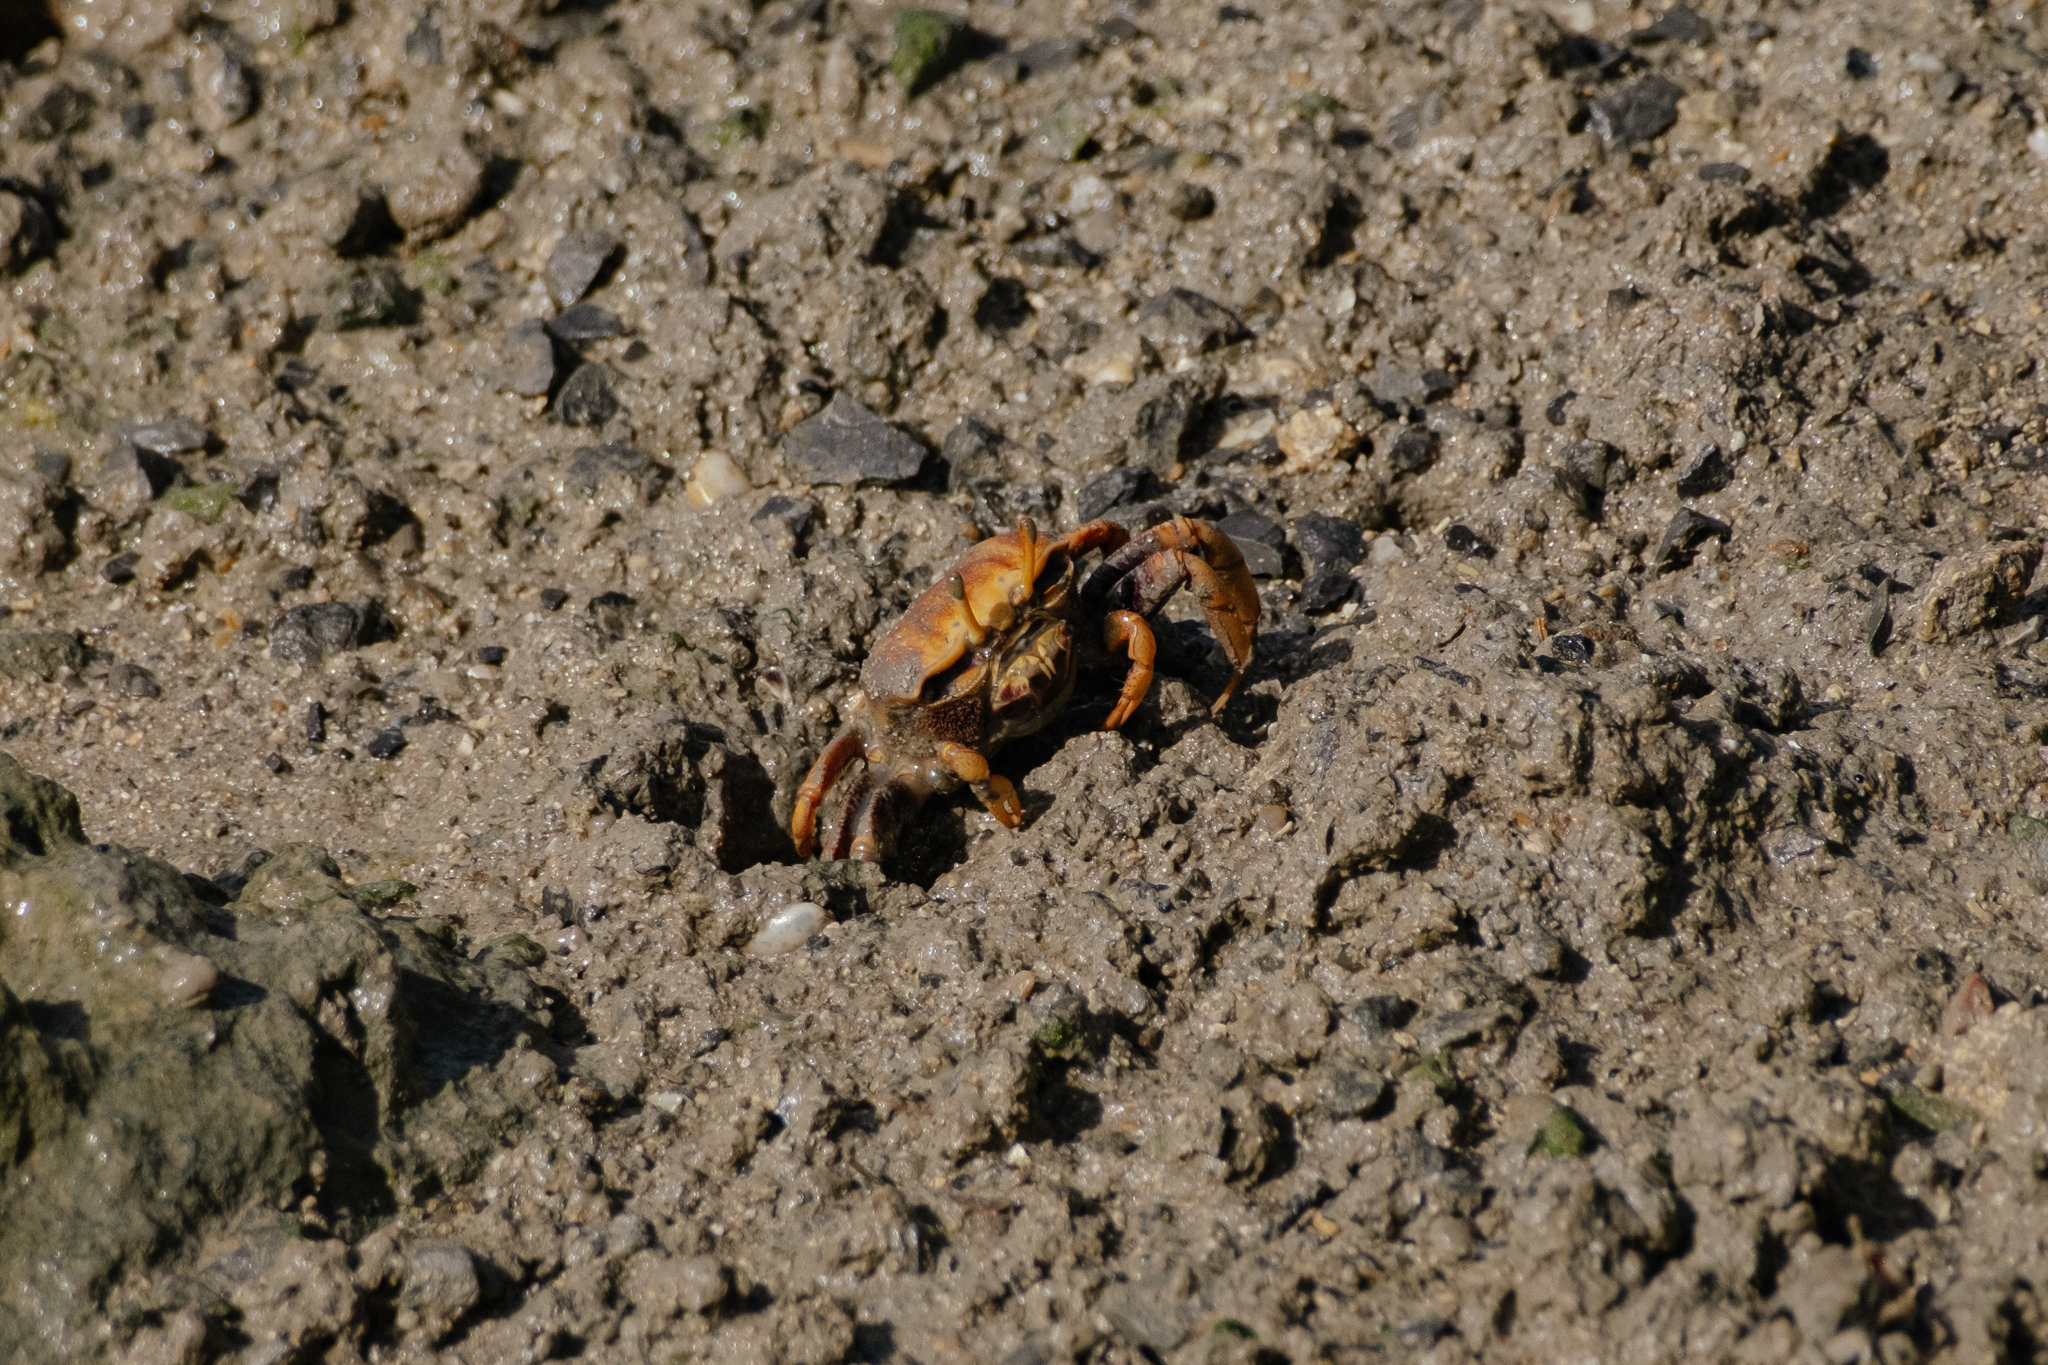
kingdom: Animalia
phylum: Arthropoda
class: Malacostraca
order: Decapoda
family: Ocypodidae
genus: Afruca
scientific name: Afruca tangeri
